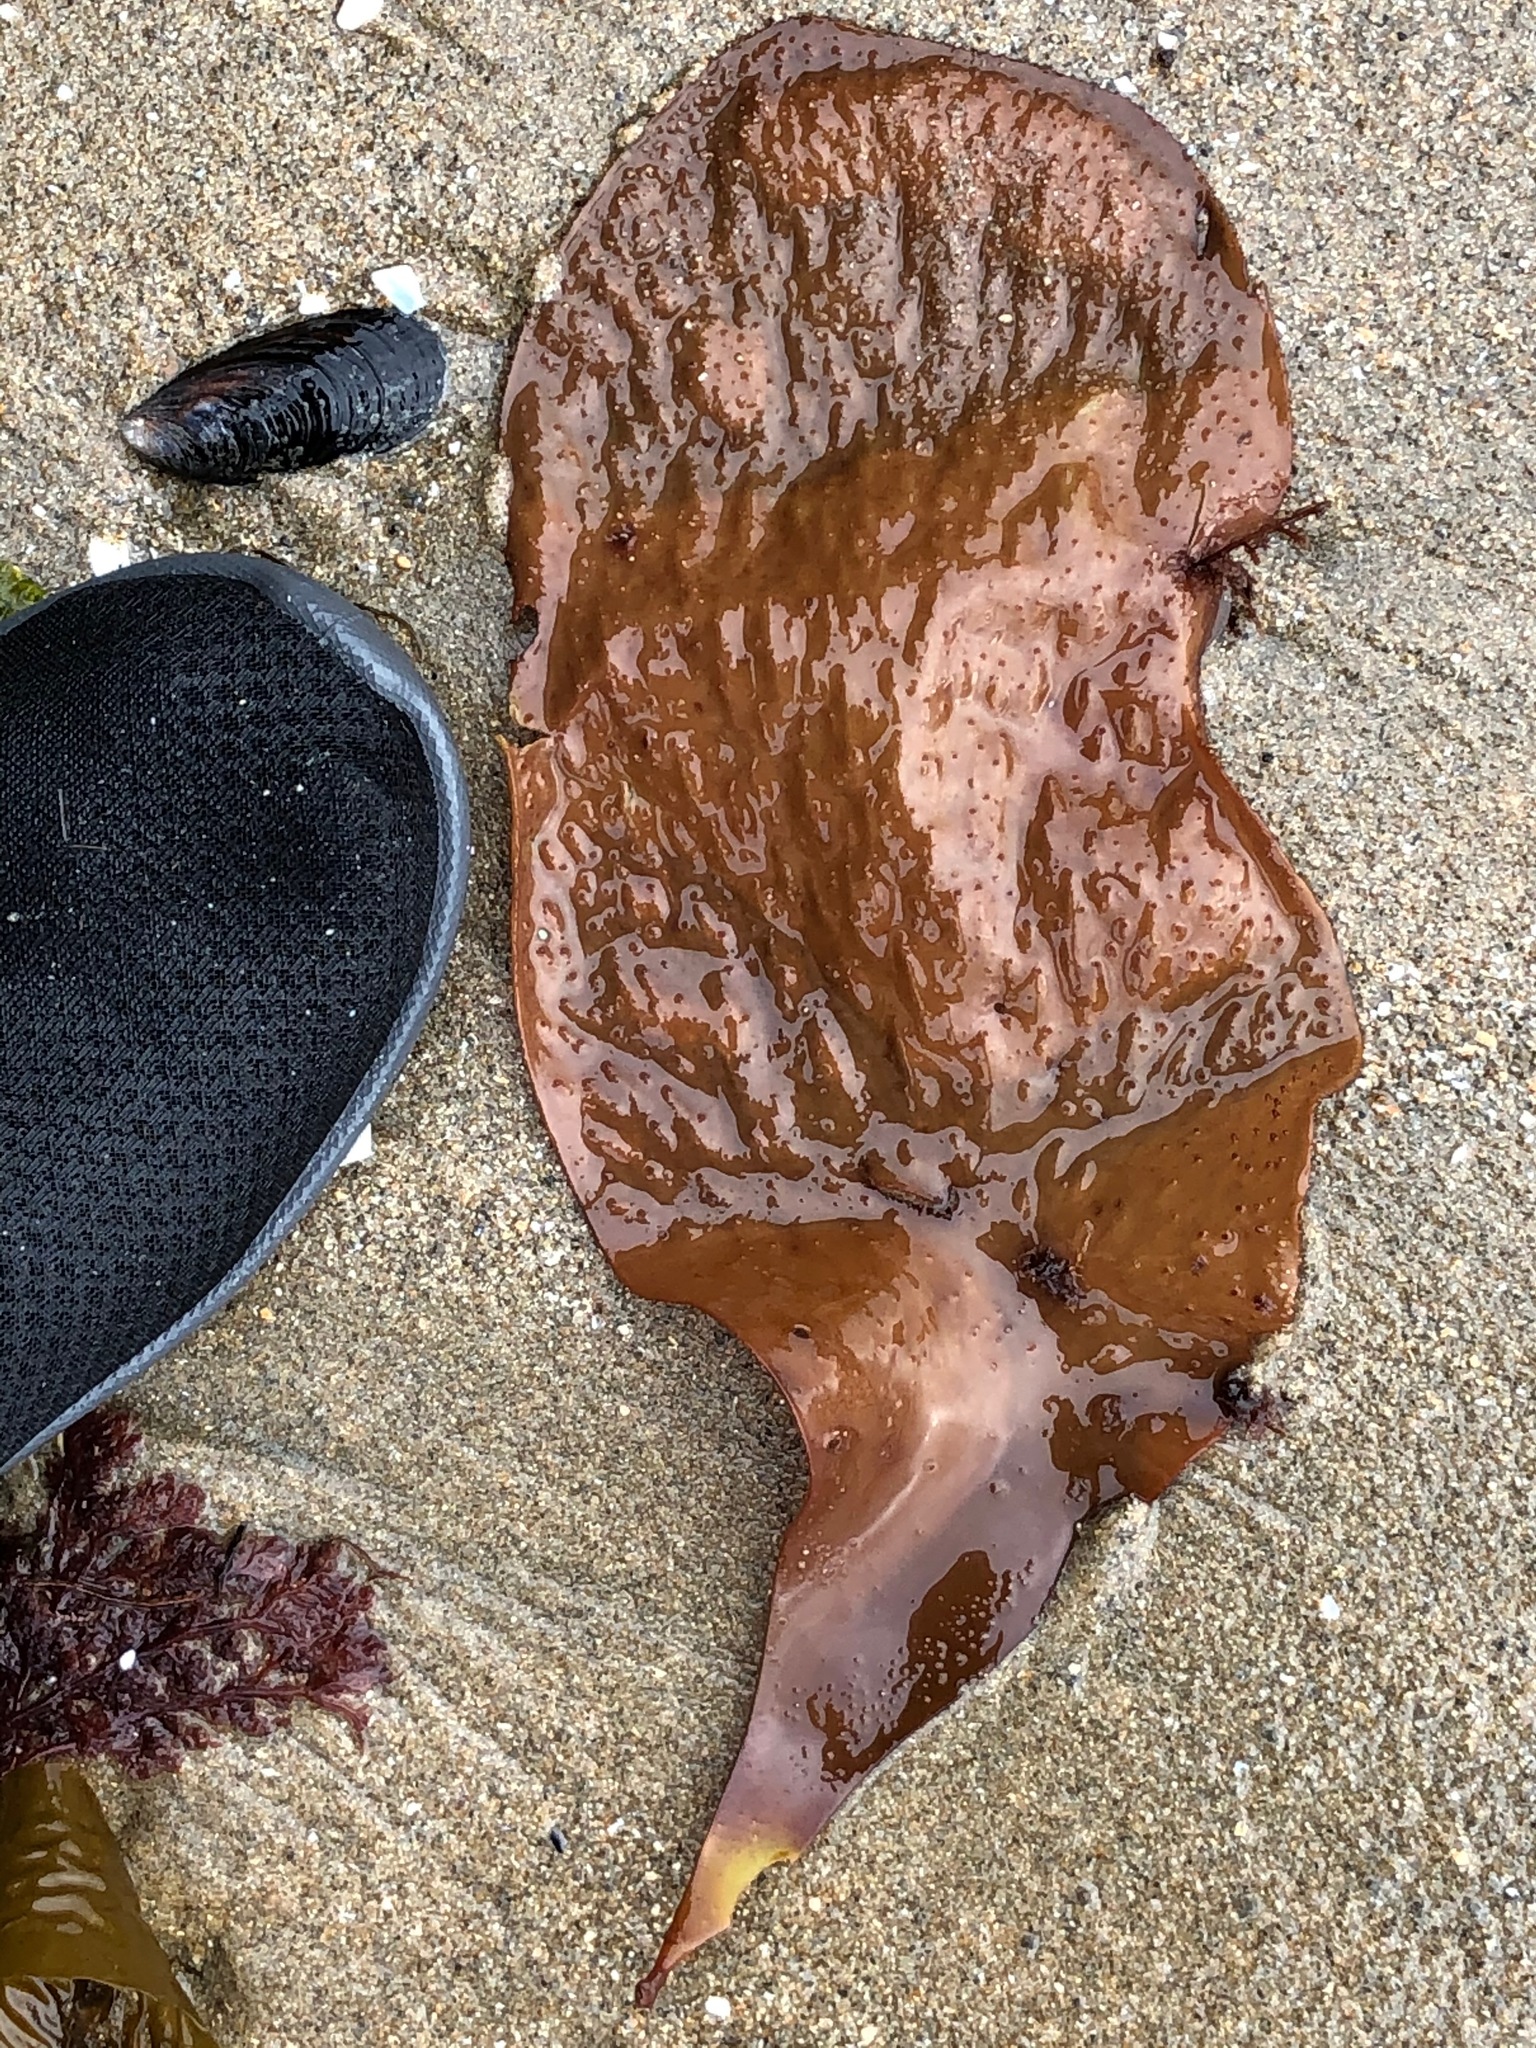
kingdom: Plantae
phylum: Rhodophyta
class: Florideophyceae
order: Gigartinales
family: Gigartinaceae
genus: Chondracanthus
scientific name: Chondracanthus exasperatus
